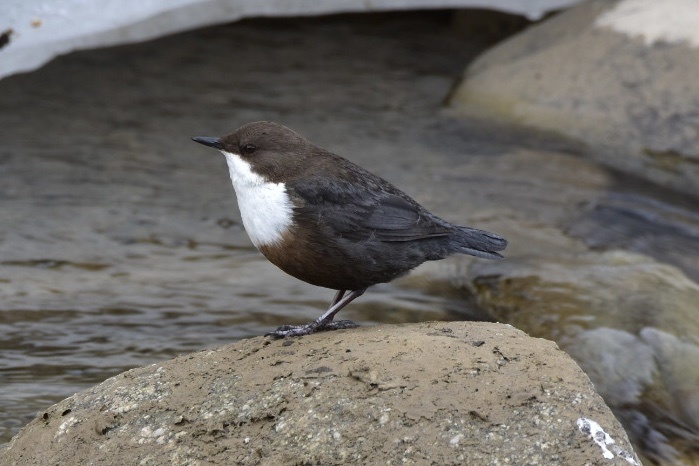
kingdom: Animalia
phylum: Chordata
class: Aves
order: Passeriformes
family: Cinclidae
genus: Cinclus
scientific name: Cinclus cinclus
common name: White-throated dipper
